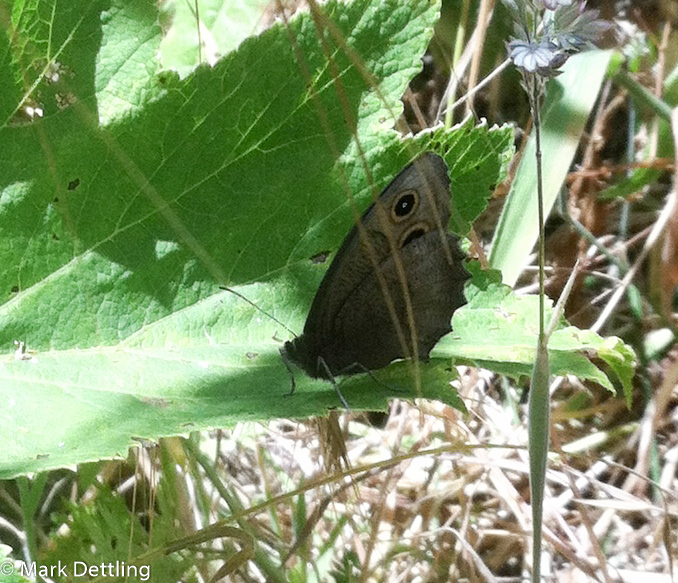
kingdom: Animalia
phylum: Arthropoda
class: Insecta
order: Lepidoptera
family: Nymphalidae
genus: Cercyonis
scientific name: Cercyonis pegala
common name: Common wood-nymph
